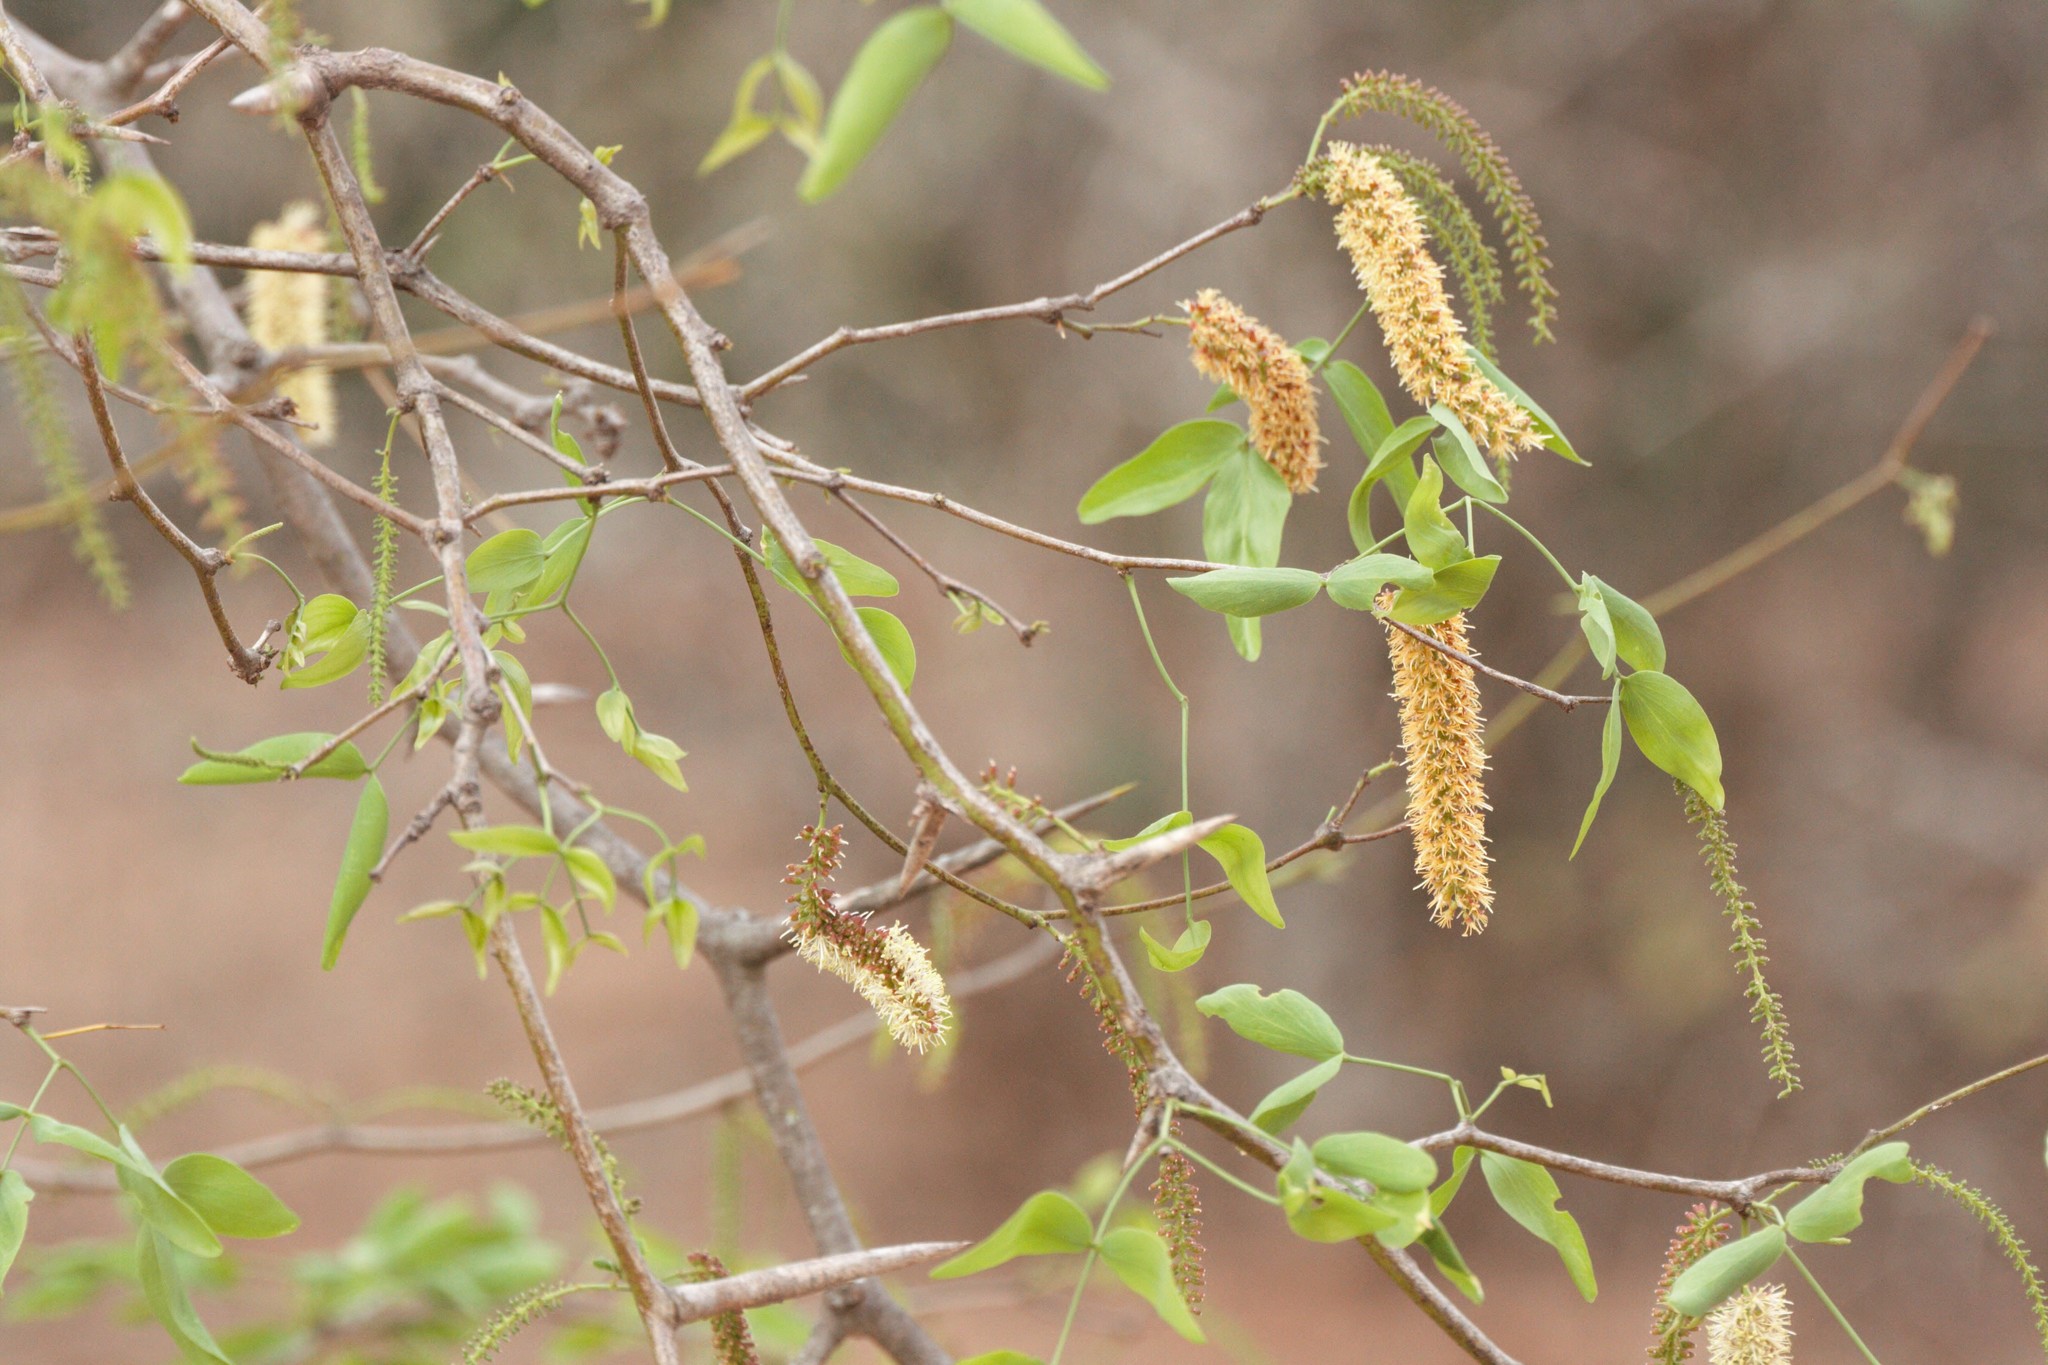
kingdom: Plantae
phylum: Tracheophyta
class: Magnoliopsida
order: Fabales
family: Fabaceae
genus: Prosopis
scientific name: Prosopis ruscifolia
